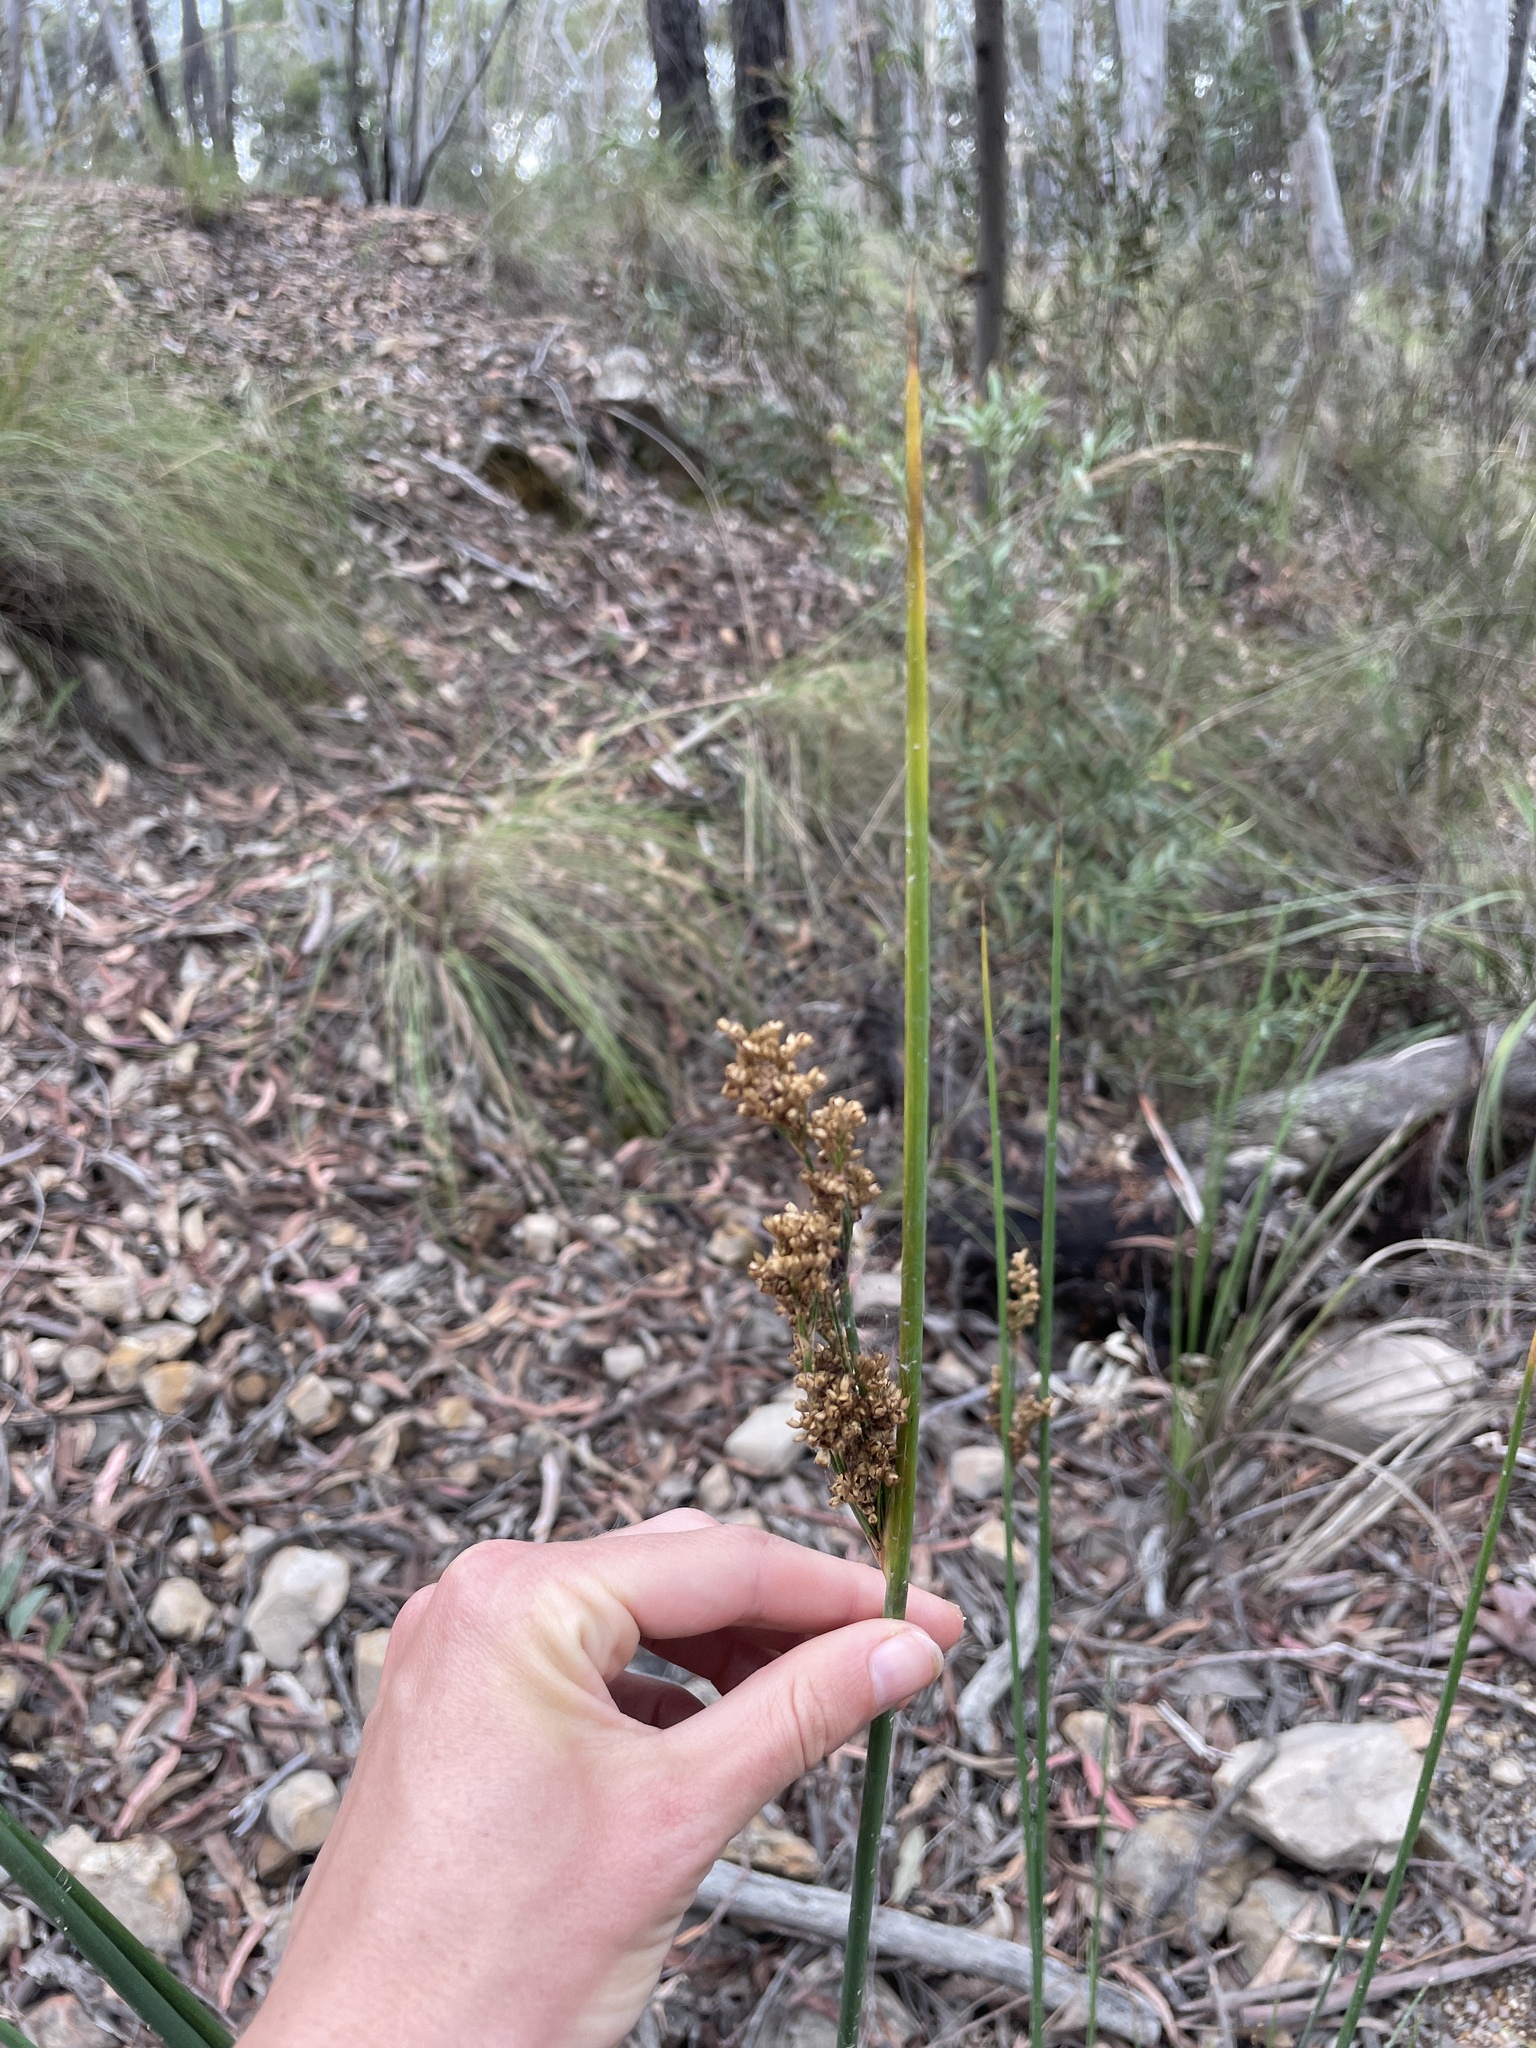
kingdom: Plantae
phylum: Tracheophyta
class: Liliopsida
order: Poales
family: Juncaceae
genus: Juncus
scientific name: Juncus pallidus
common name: Great soft-rush
